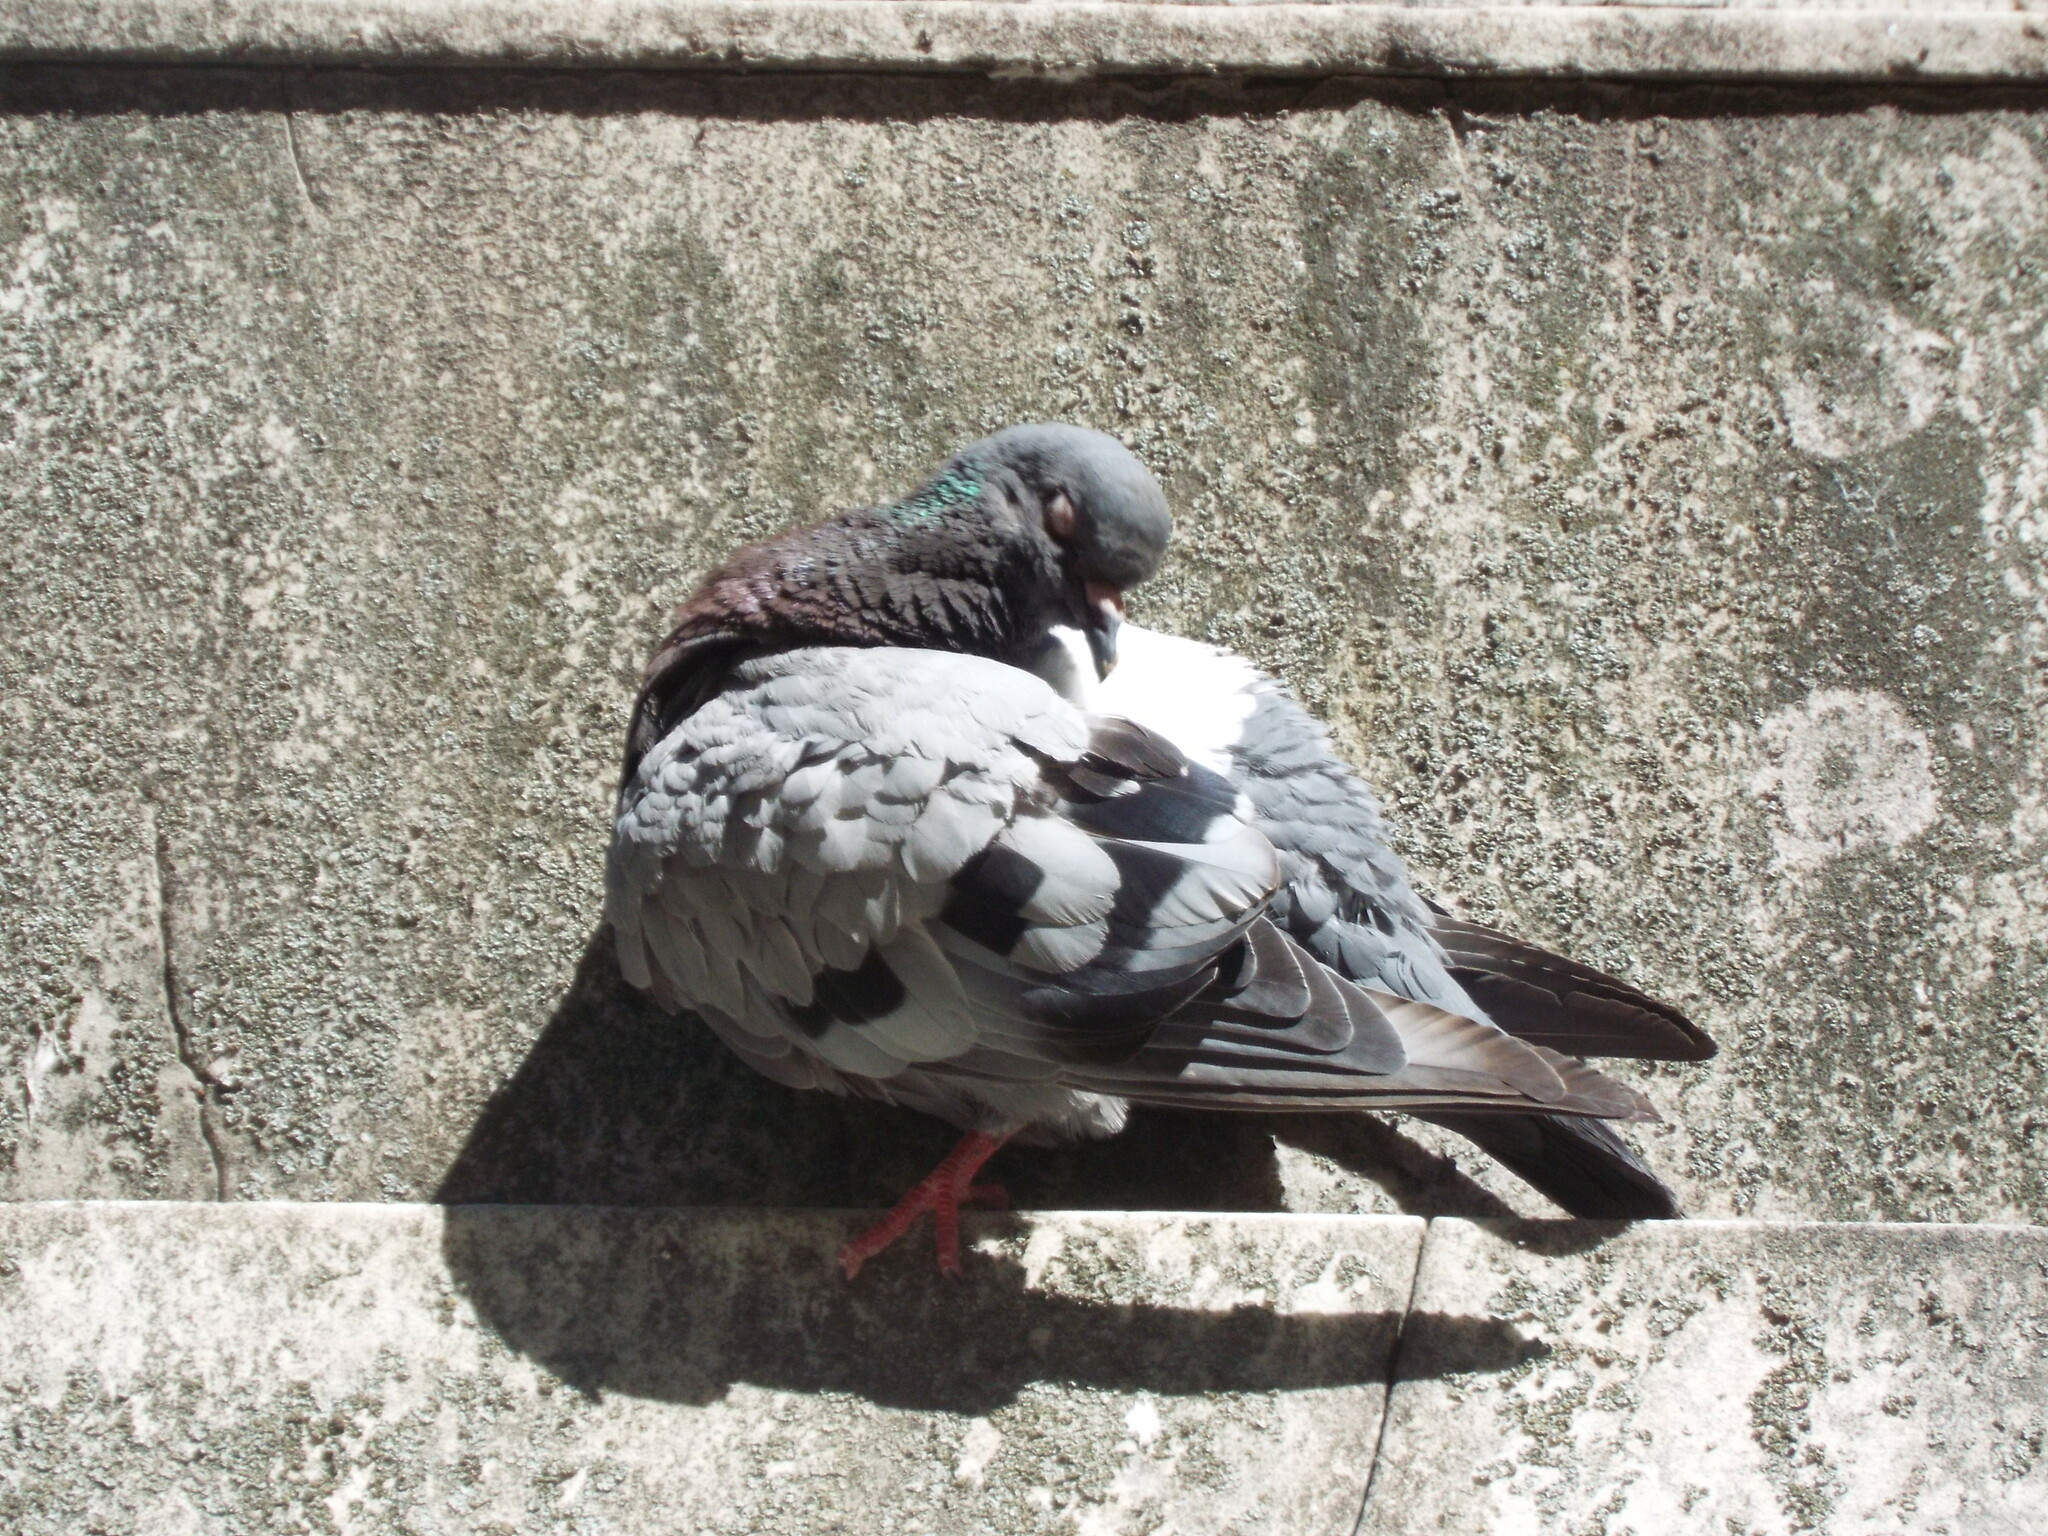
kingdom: Animalia
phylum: Chordata
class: Aves
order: Columbiformes
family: Columbidae
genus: Columba
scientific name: Columba livia
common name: Rock pigeon
